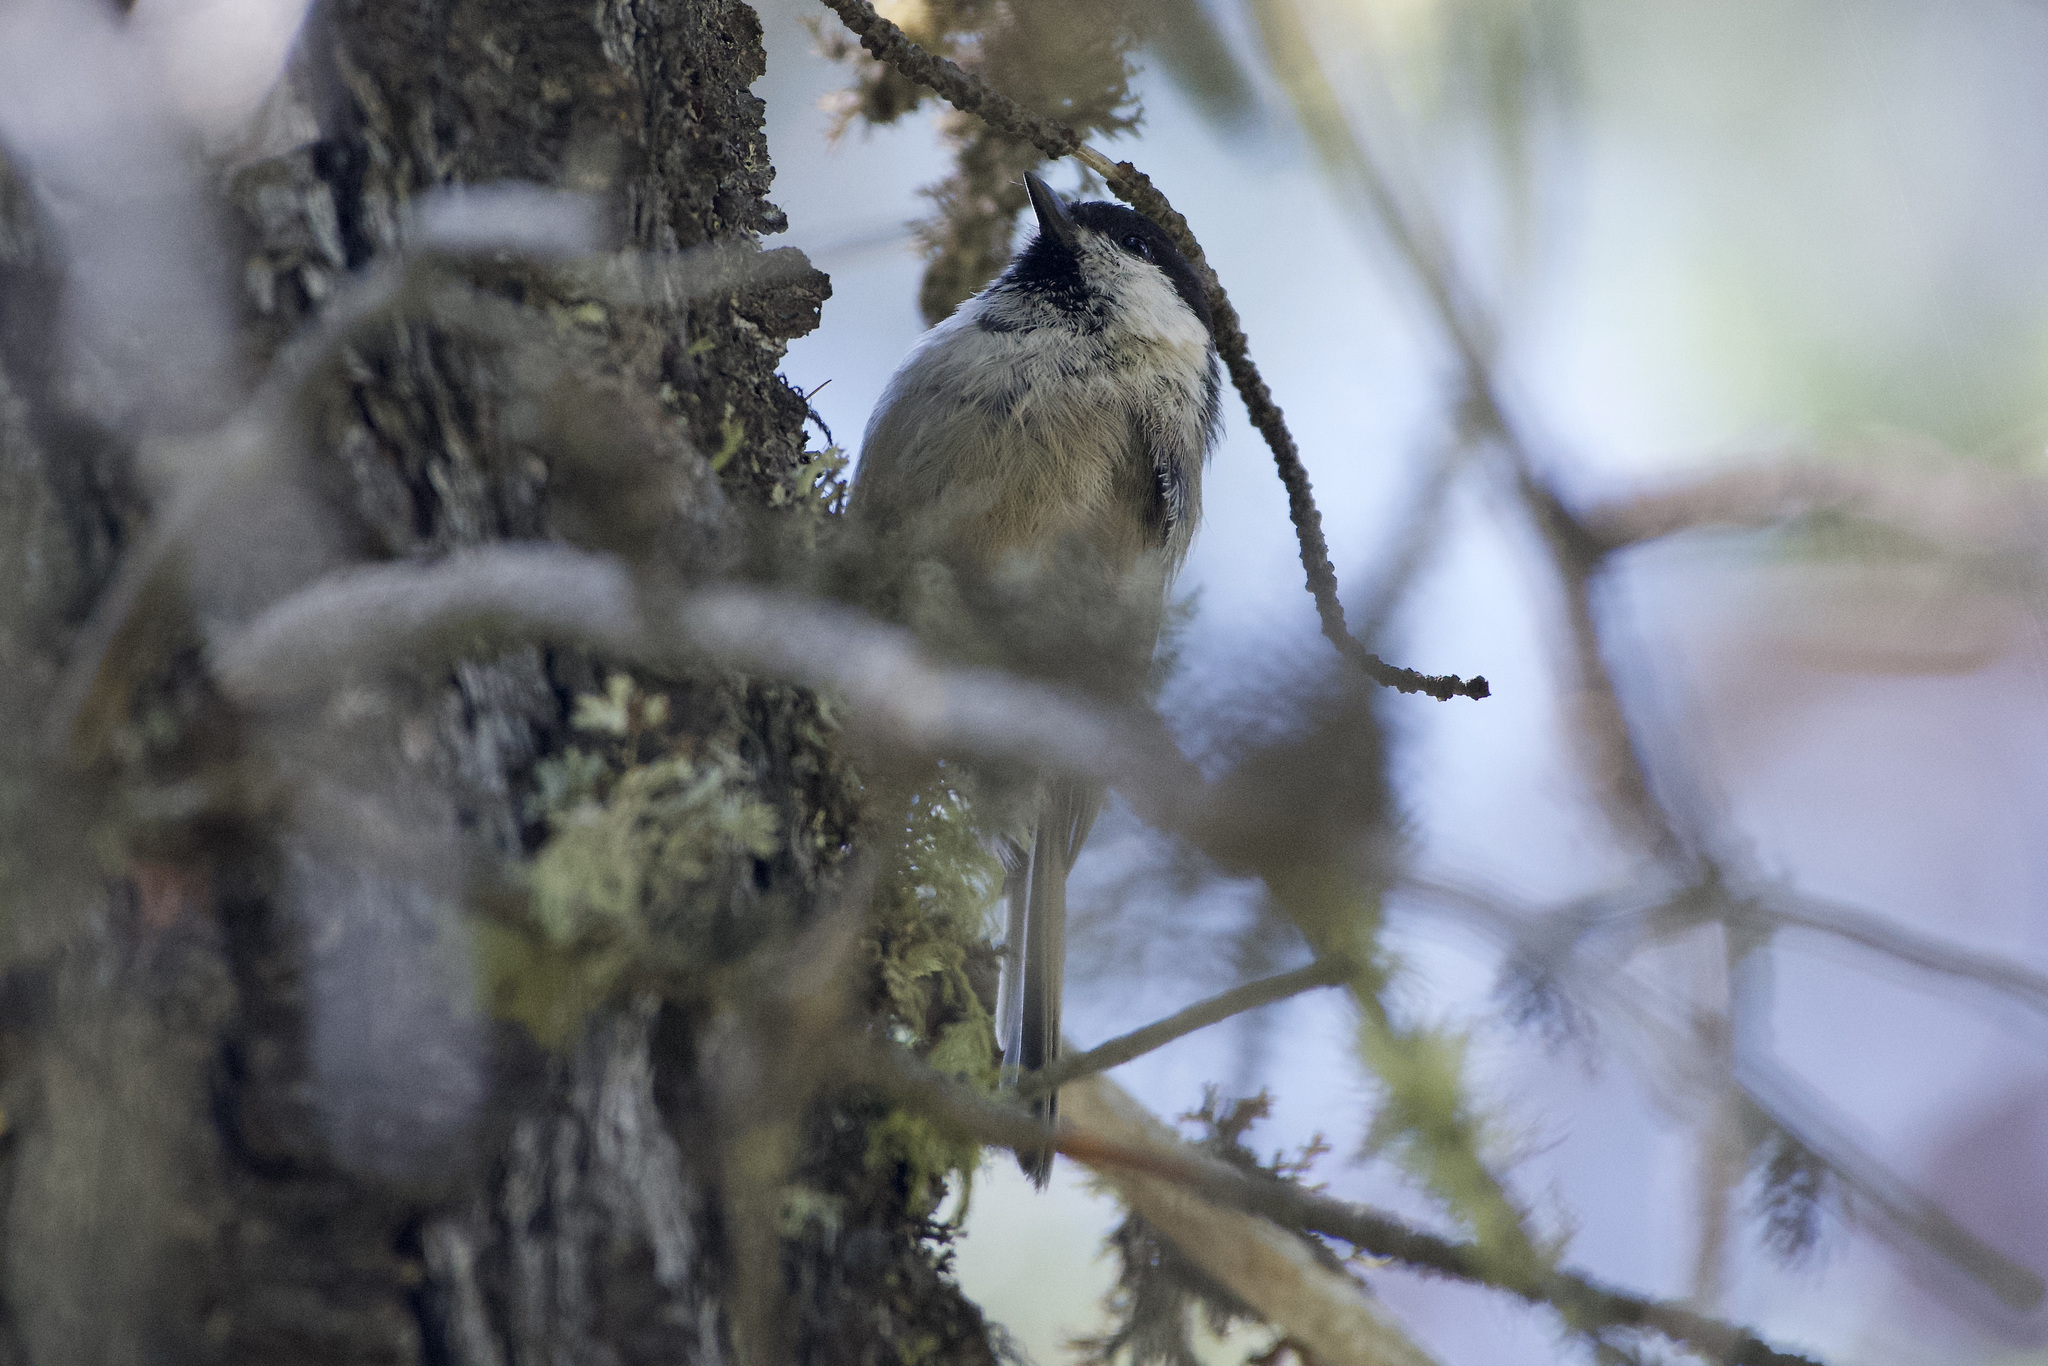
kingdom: Animalia
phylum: Chordata
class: Aves
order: Passeriformes
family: Paridae
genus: Poecile
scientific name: Poecile montanus
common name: Willow tit
